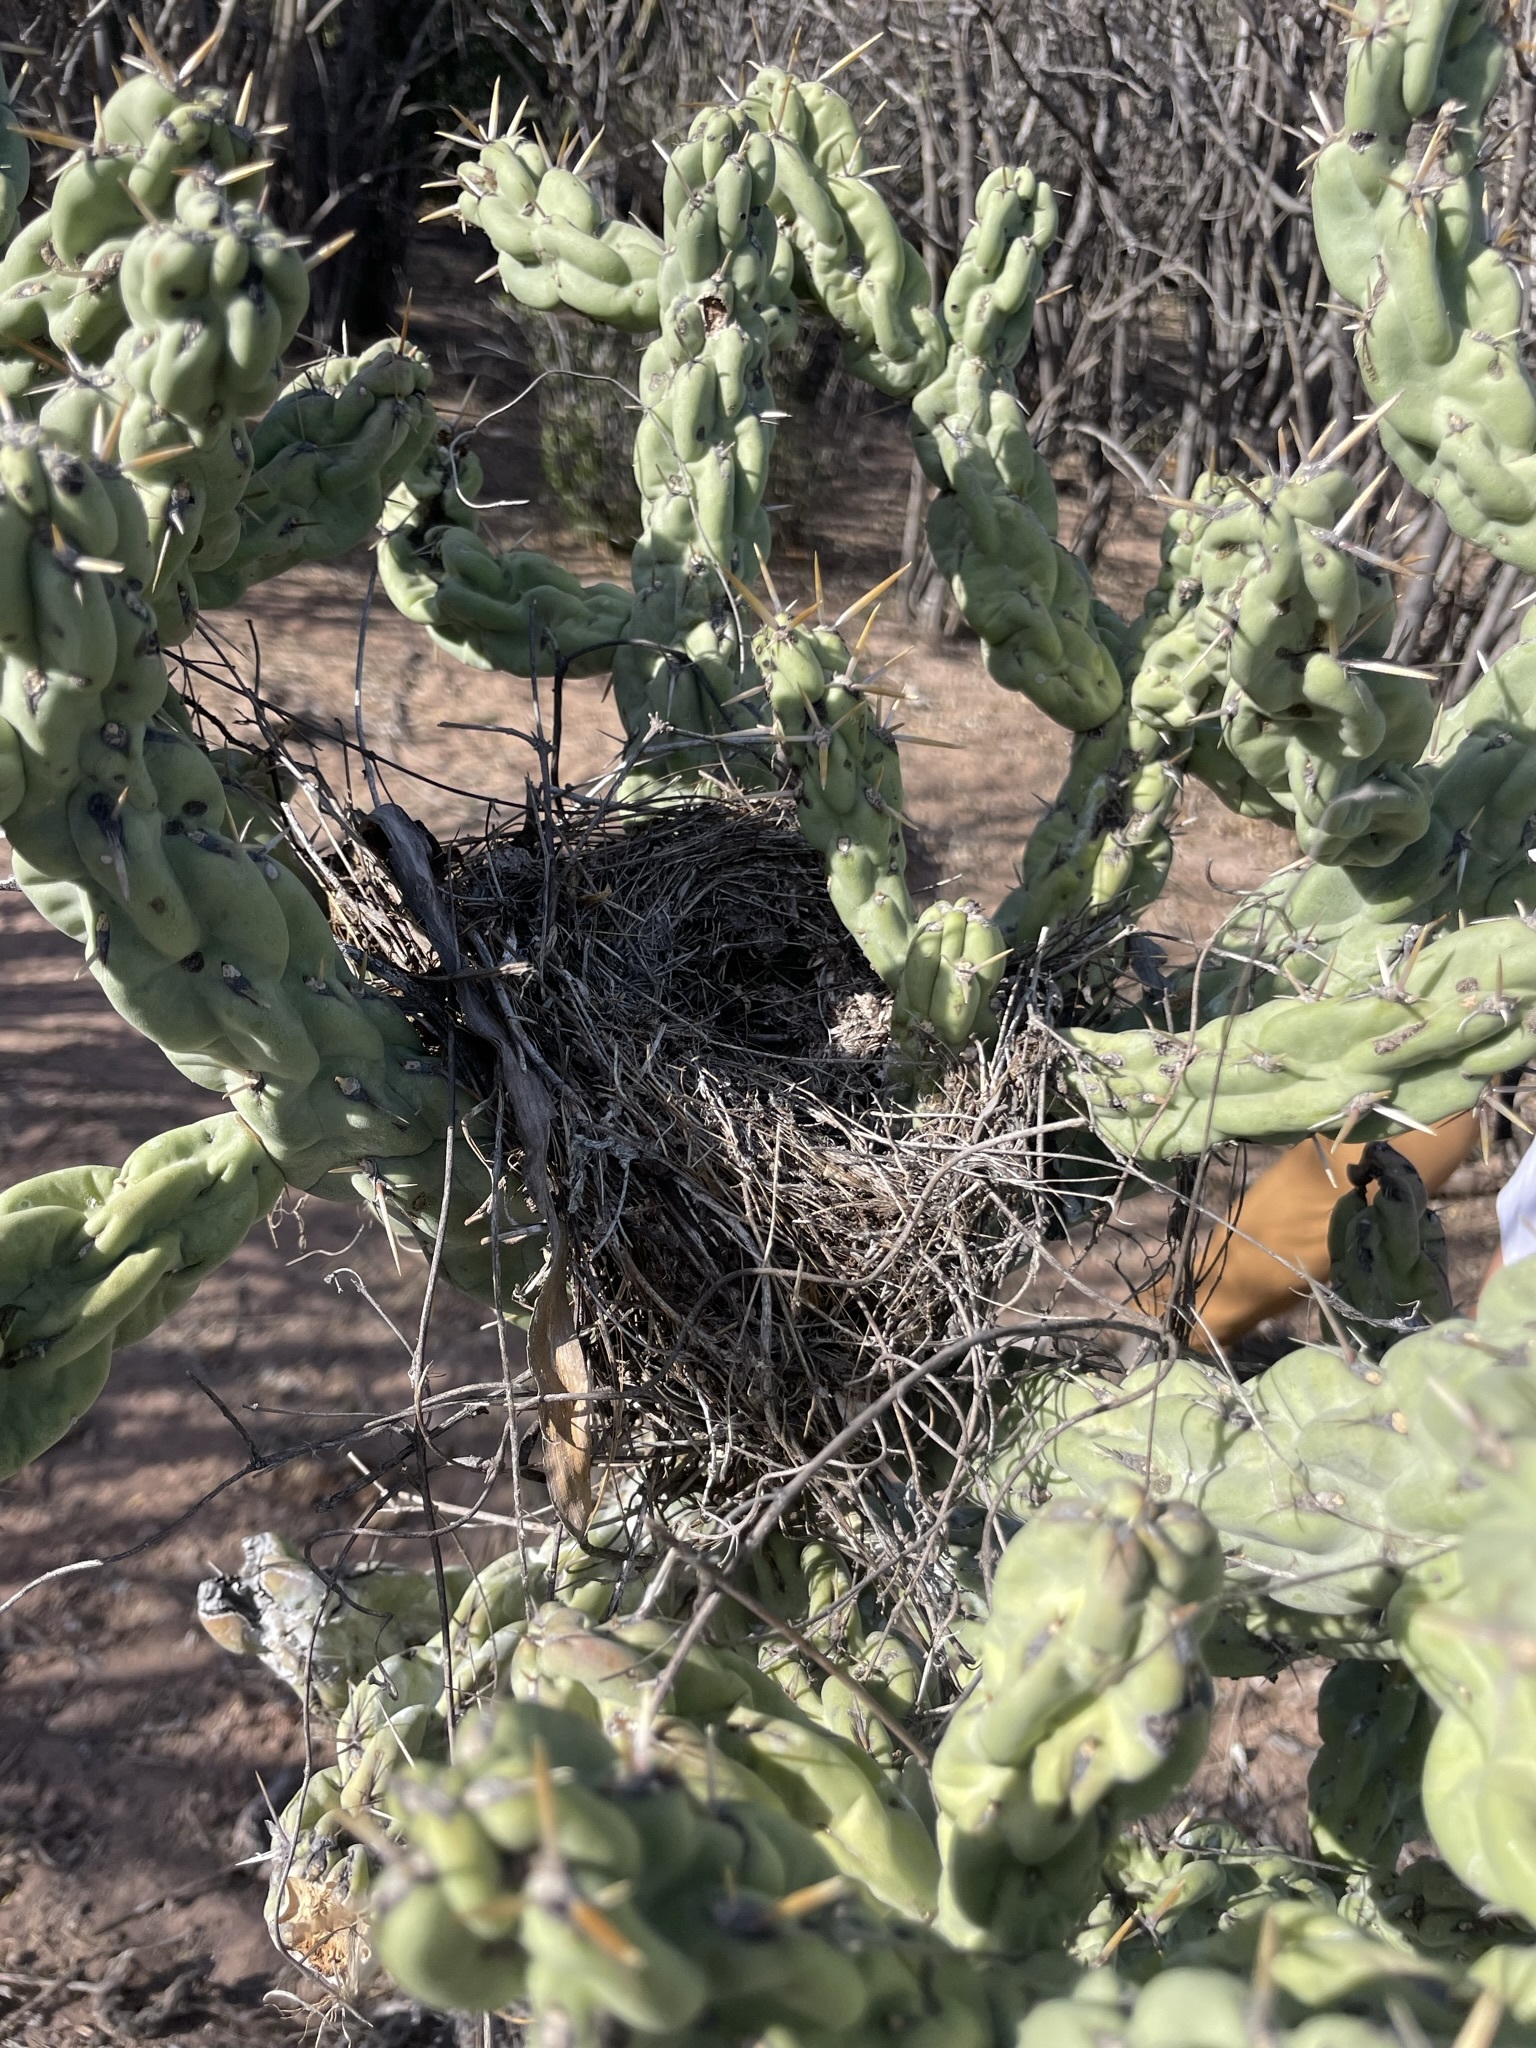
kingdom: Animalia
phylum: Chordata
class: Aves
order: Passeriformes
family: Troglodytidae
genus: Campylorhynchus
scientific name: Campylorhynchus brunneicapillus
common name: Cactus wren
